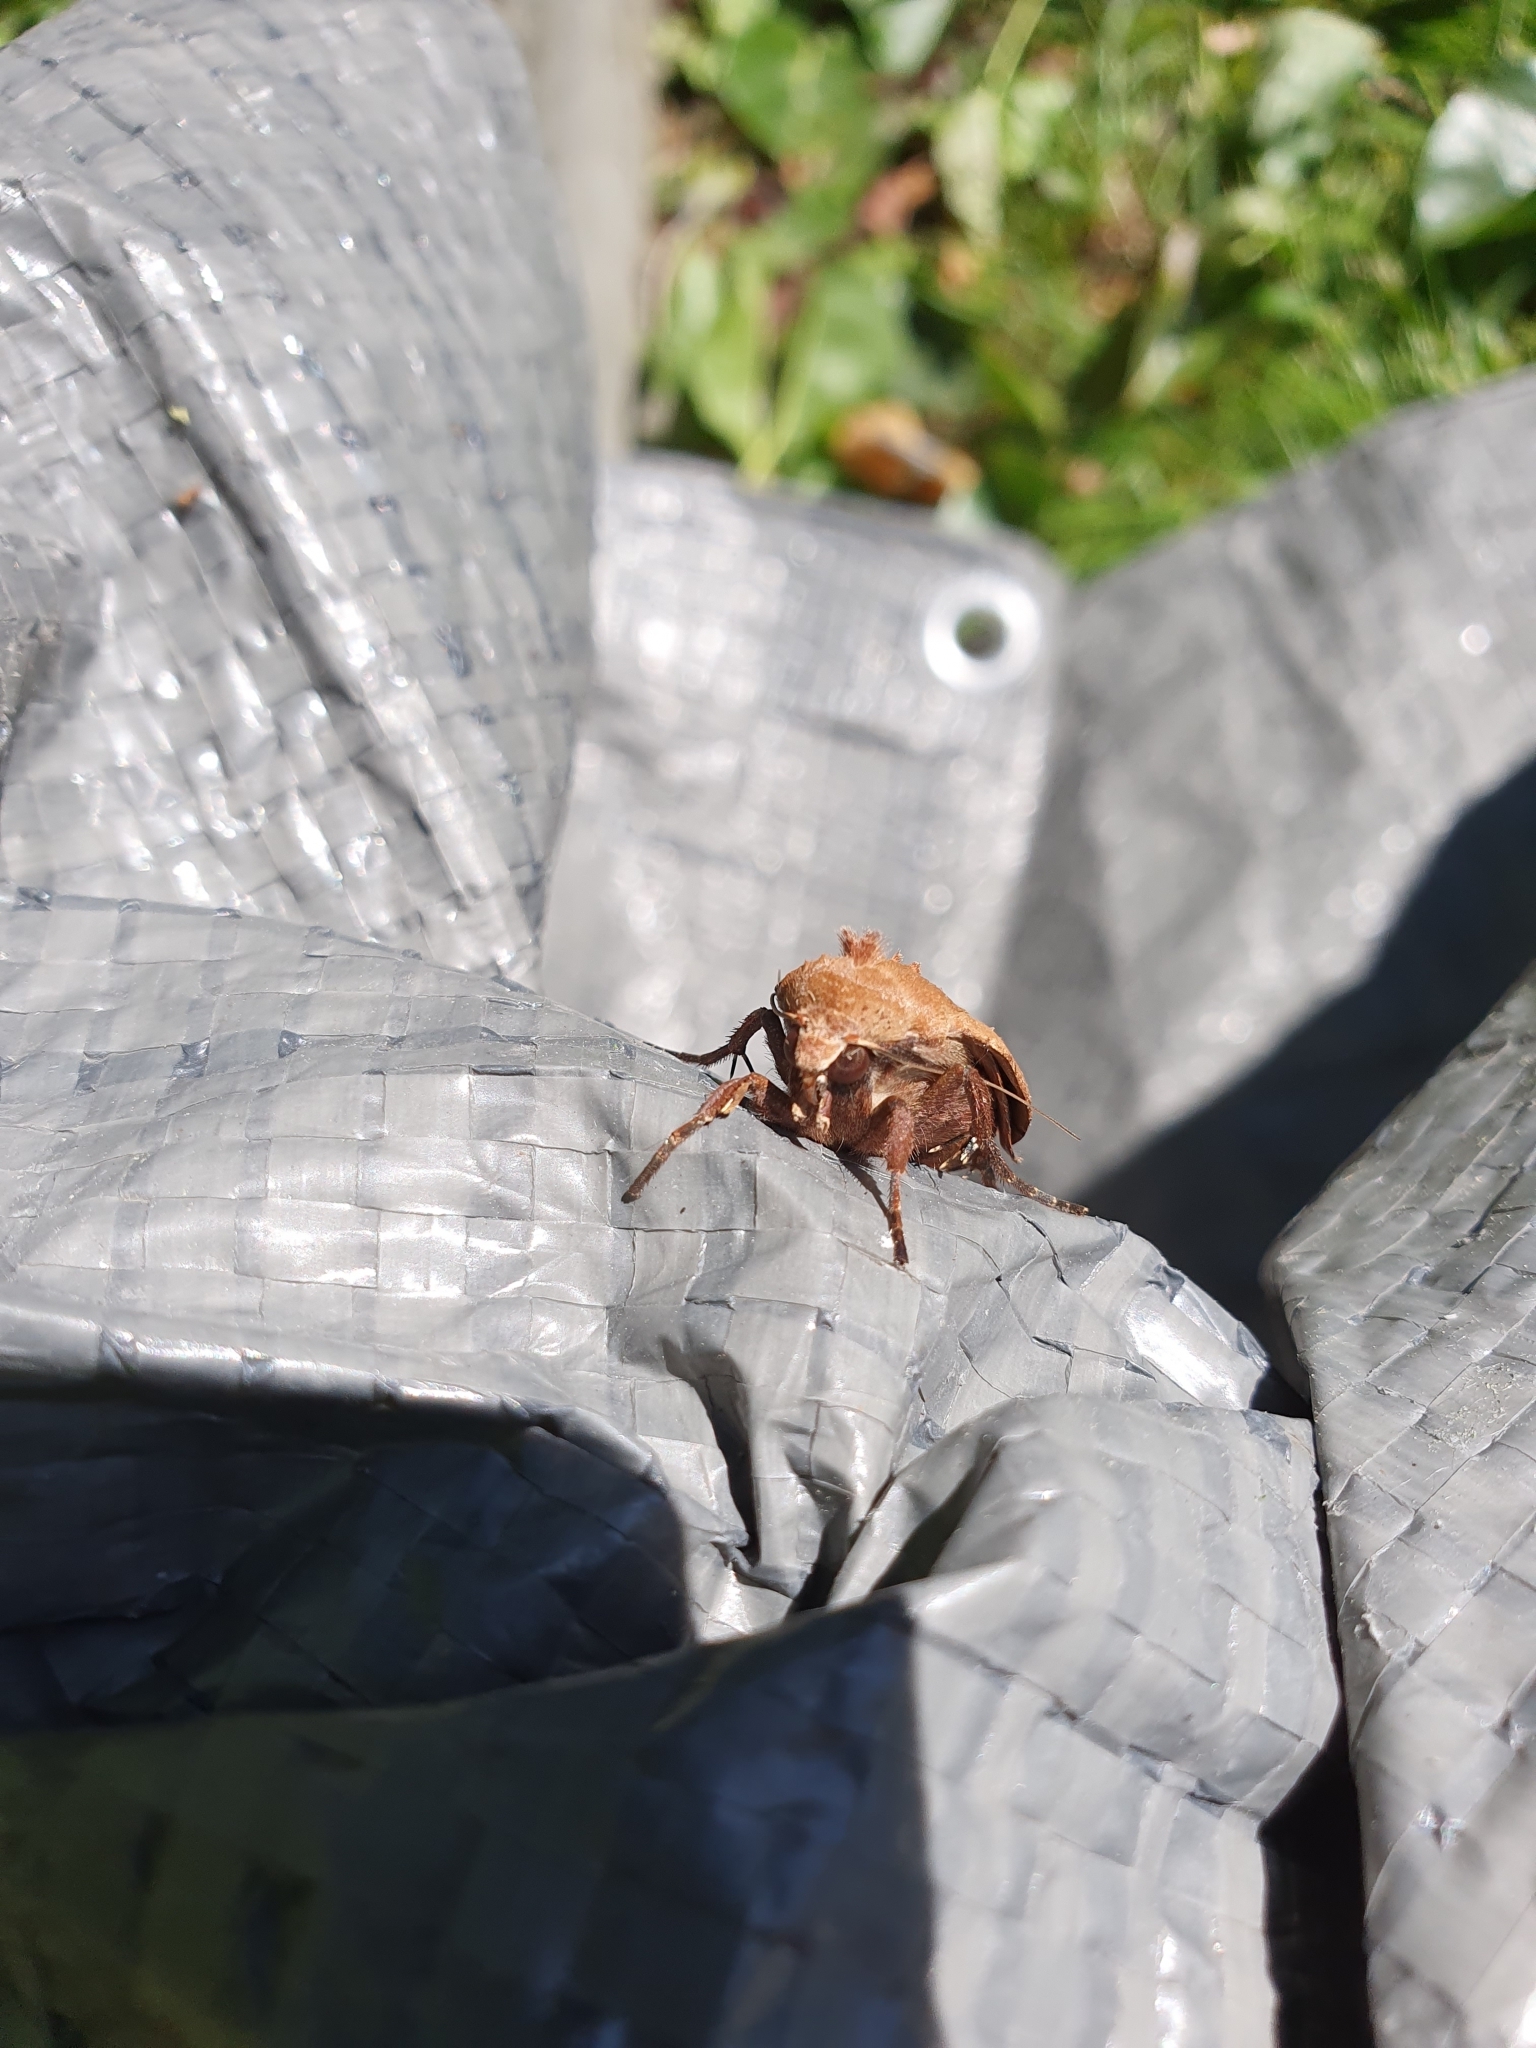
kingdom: Animalia
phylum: Arthropoda
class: Insecta
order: Lepidoptera
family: Noctuidae
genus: Noctua
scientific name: Noctua pronuba
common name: Large yellow underwing
